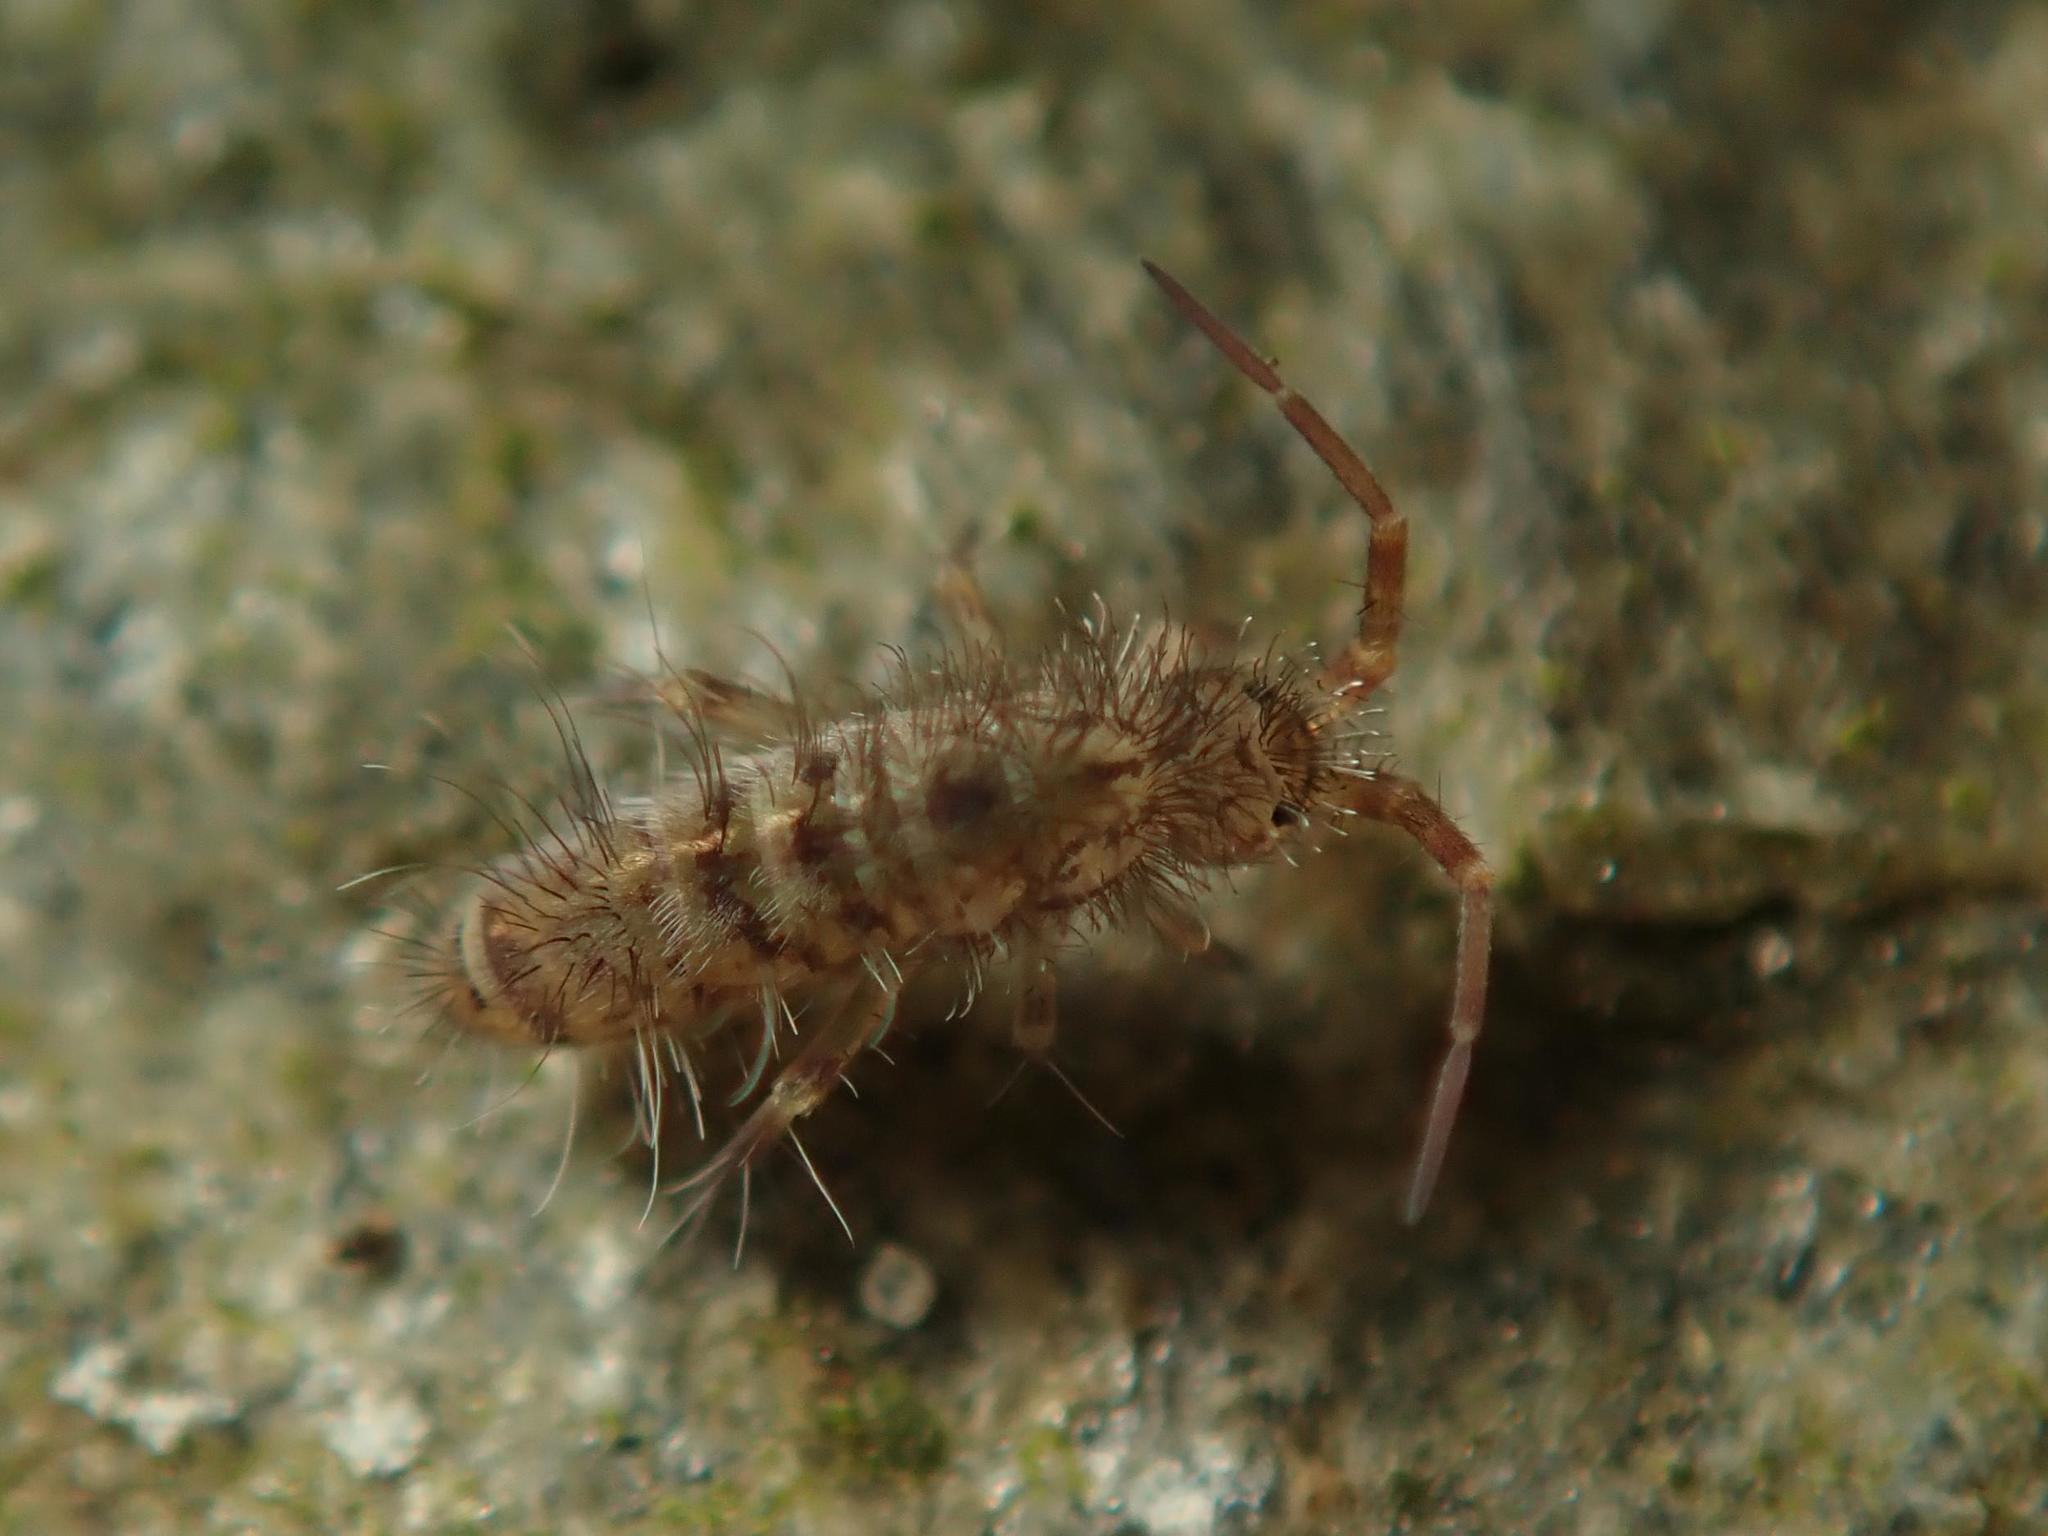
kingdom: Animalia
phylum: Arthropoda
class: Collembola
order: Entomobryomorpha
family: Orchesellidae
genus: Orchesella
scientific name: Orchesella villosa
